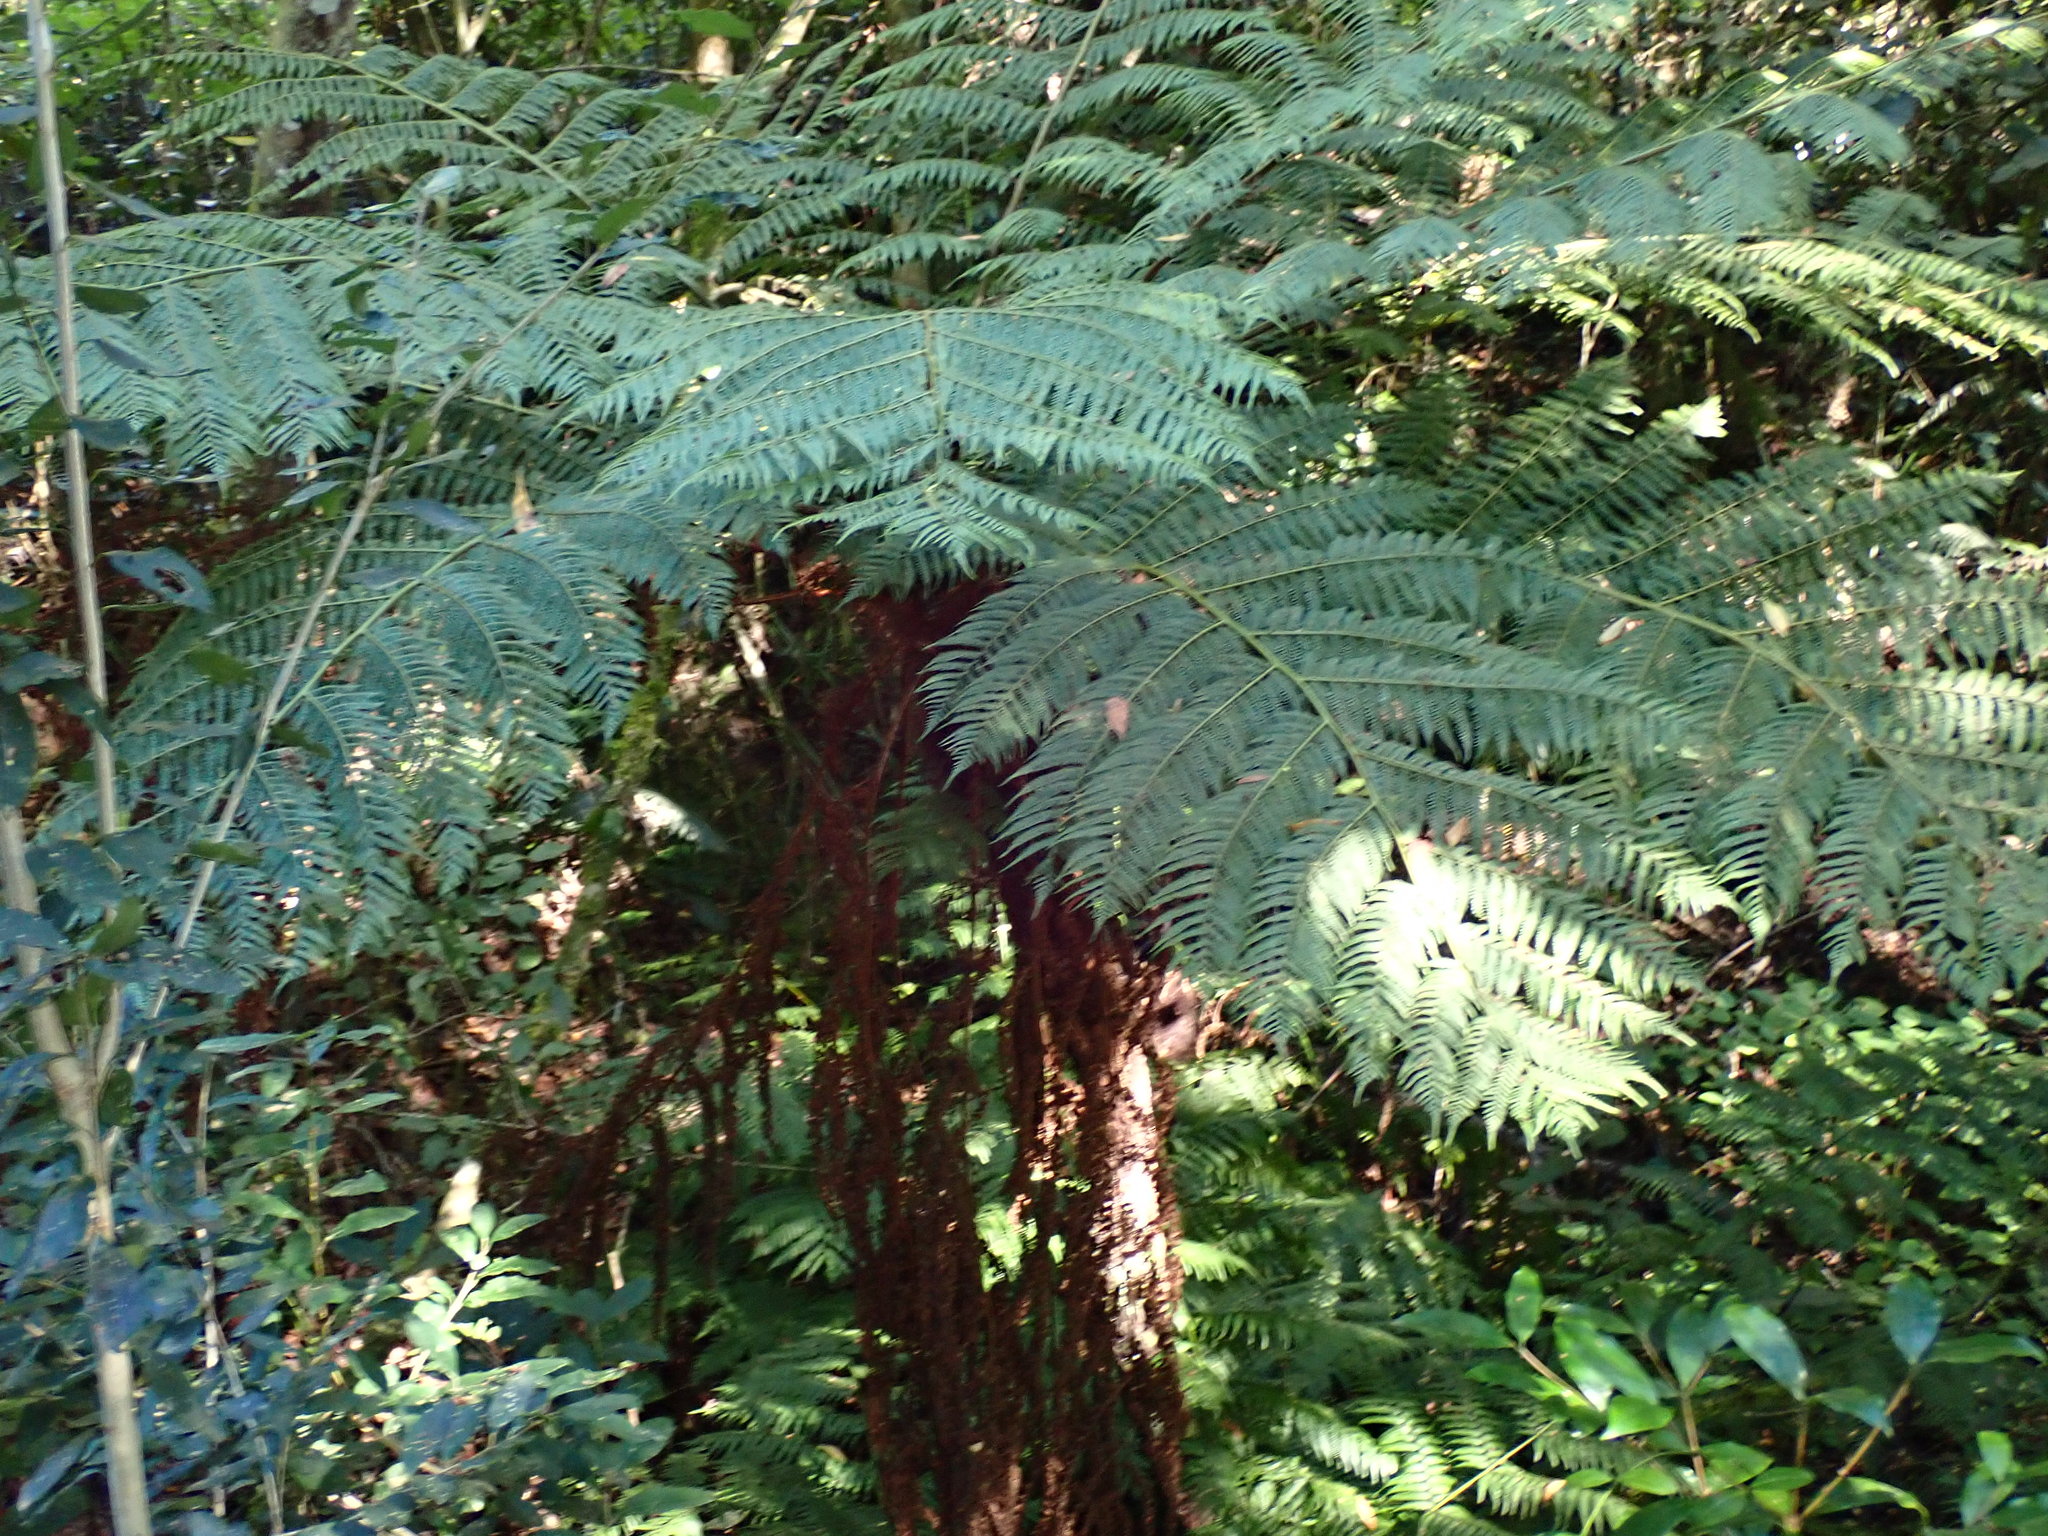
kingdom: Plantae
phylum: Tracheophyta
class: Polypodiopsida
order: Cyatheales
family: Cyatheaceae
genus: Gymnosphaera
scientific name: Gymnosphaera capensis
